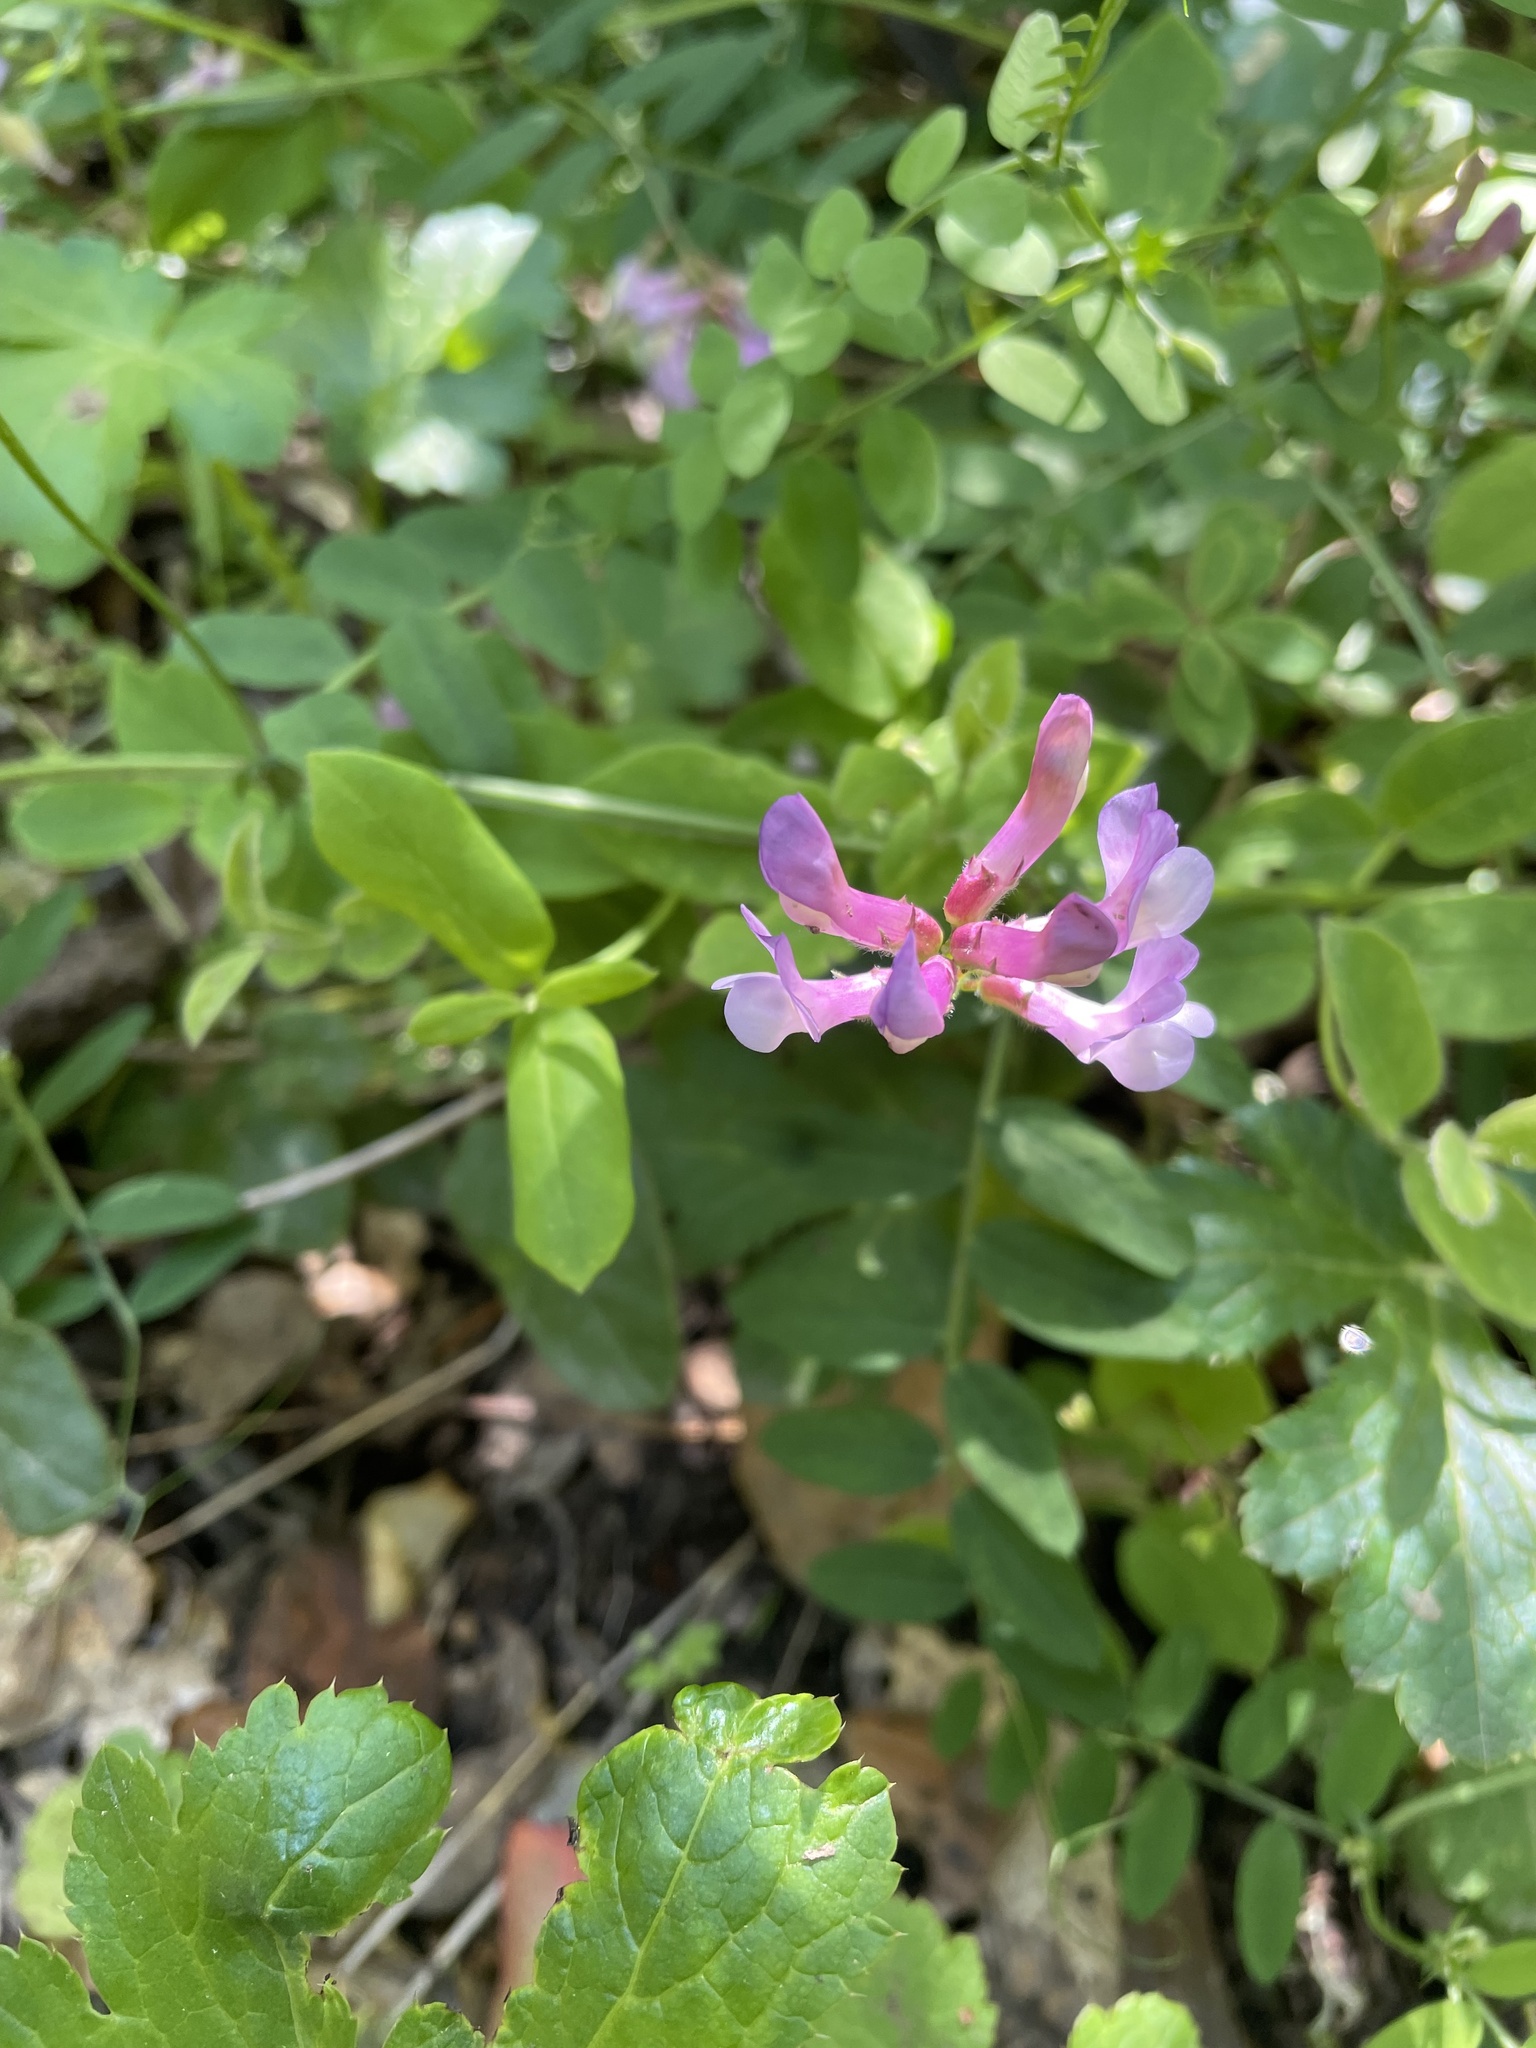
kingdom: Plantae
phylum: Tracheophyta
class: Magnoliopsida
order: Fabales
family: Fabaceae
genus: Vicia
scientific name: Vicia americana
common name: American vetch
